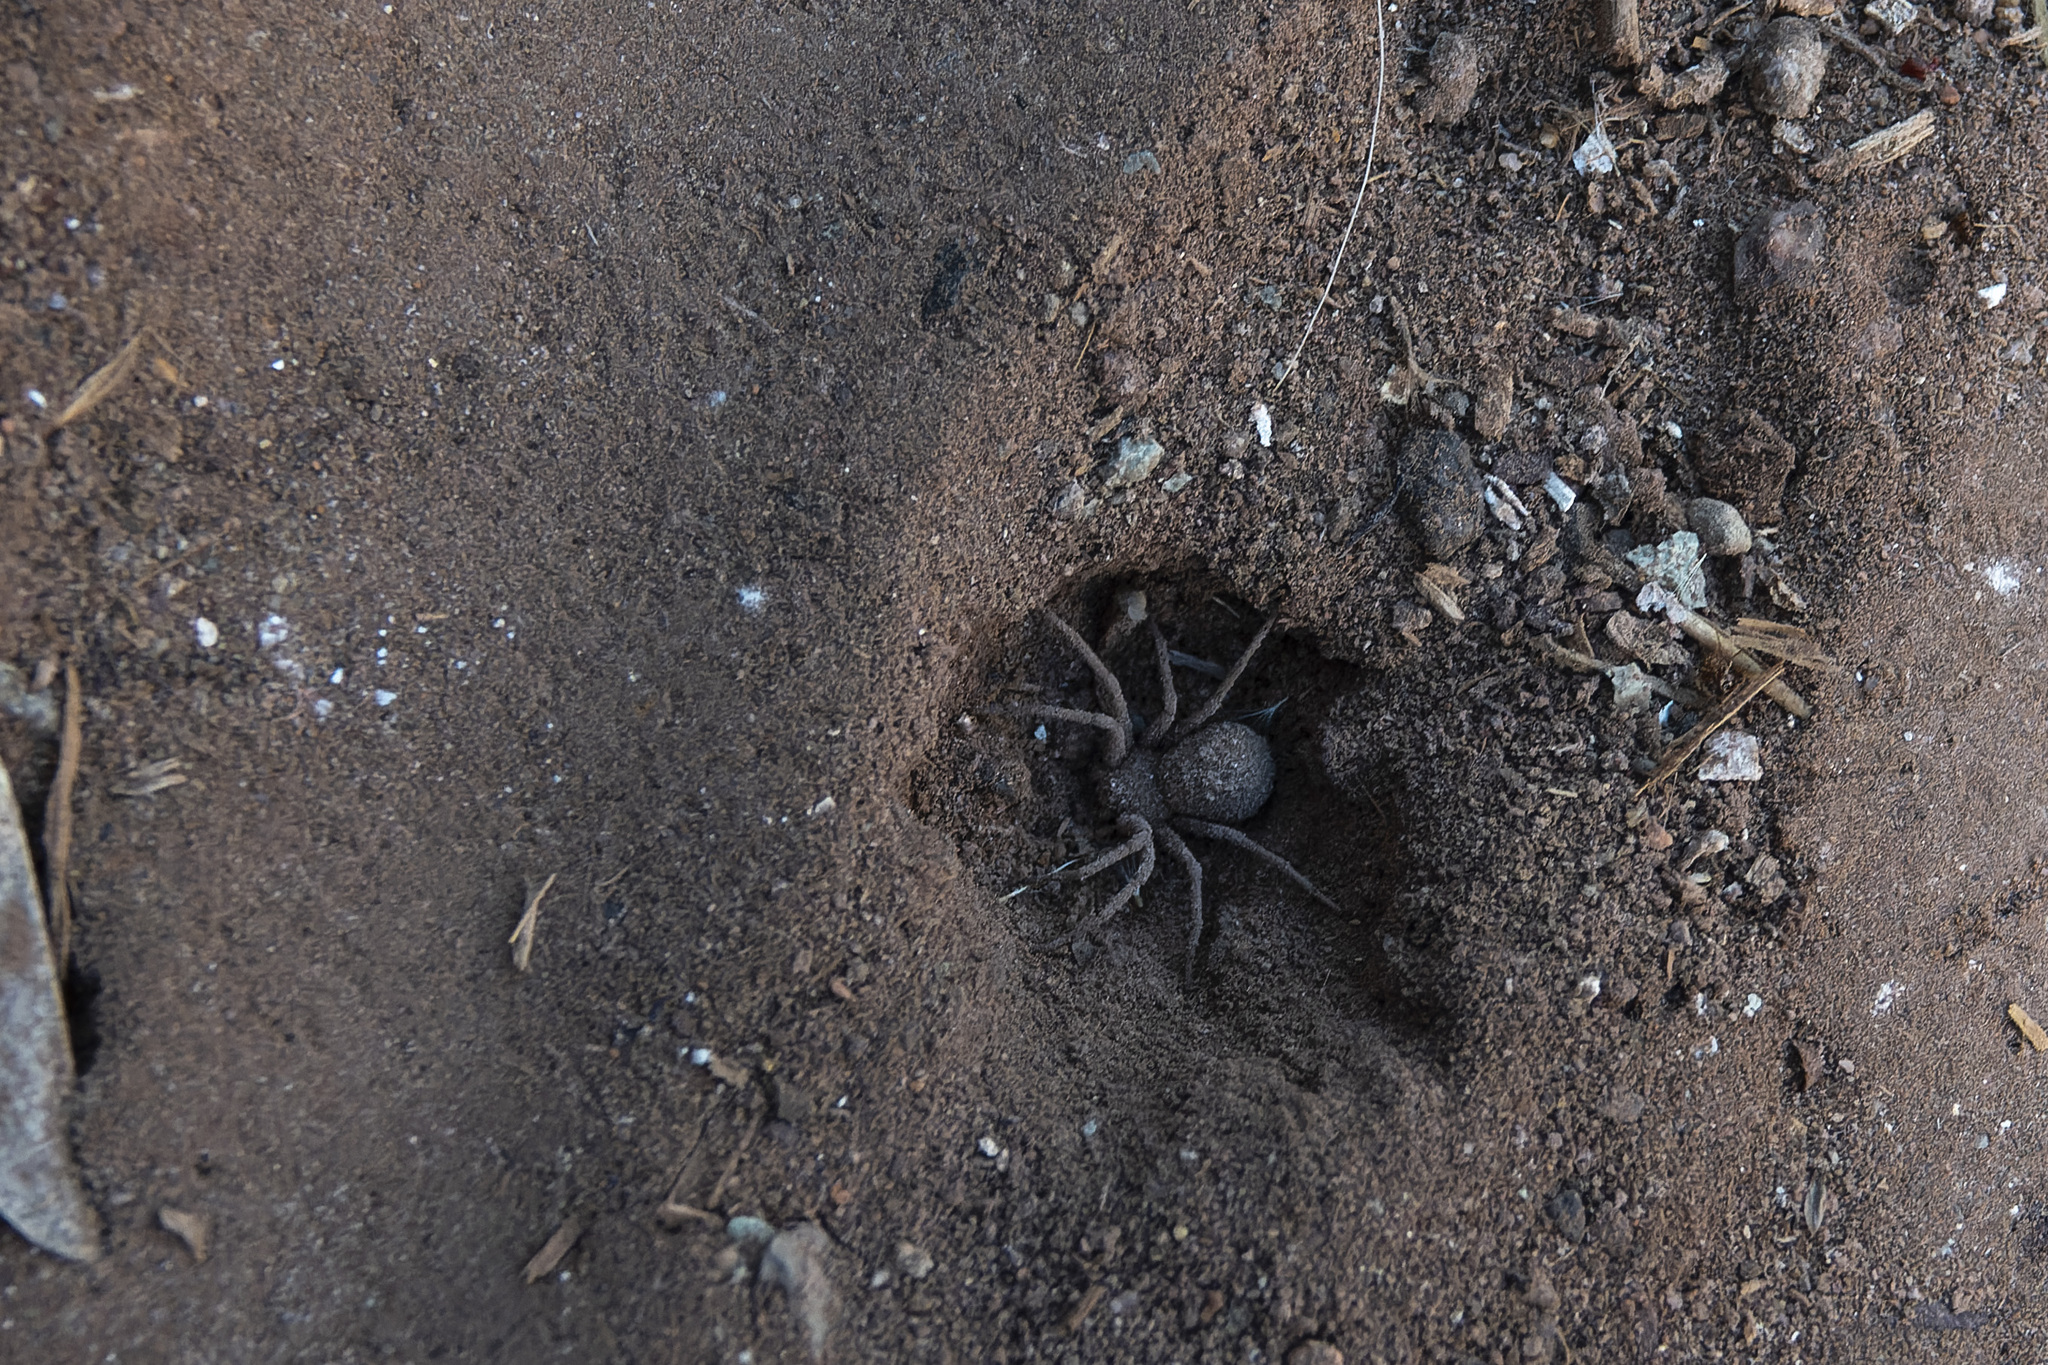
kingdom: Animalia
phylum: Arthropoda
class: Arachnida
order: Araneae
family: Sicariidae
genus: Sicarius
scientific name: Sicarius levii
